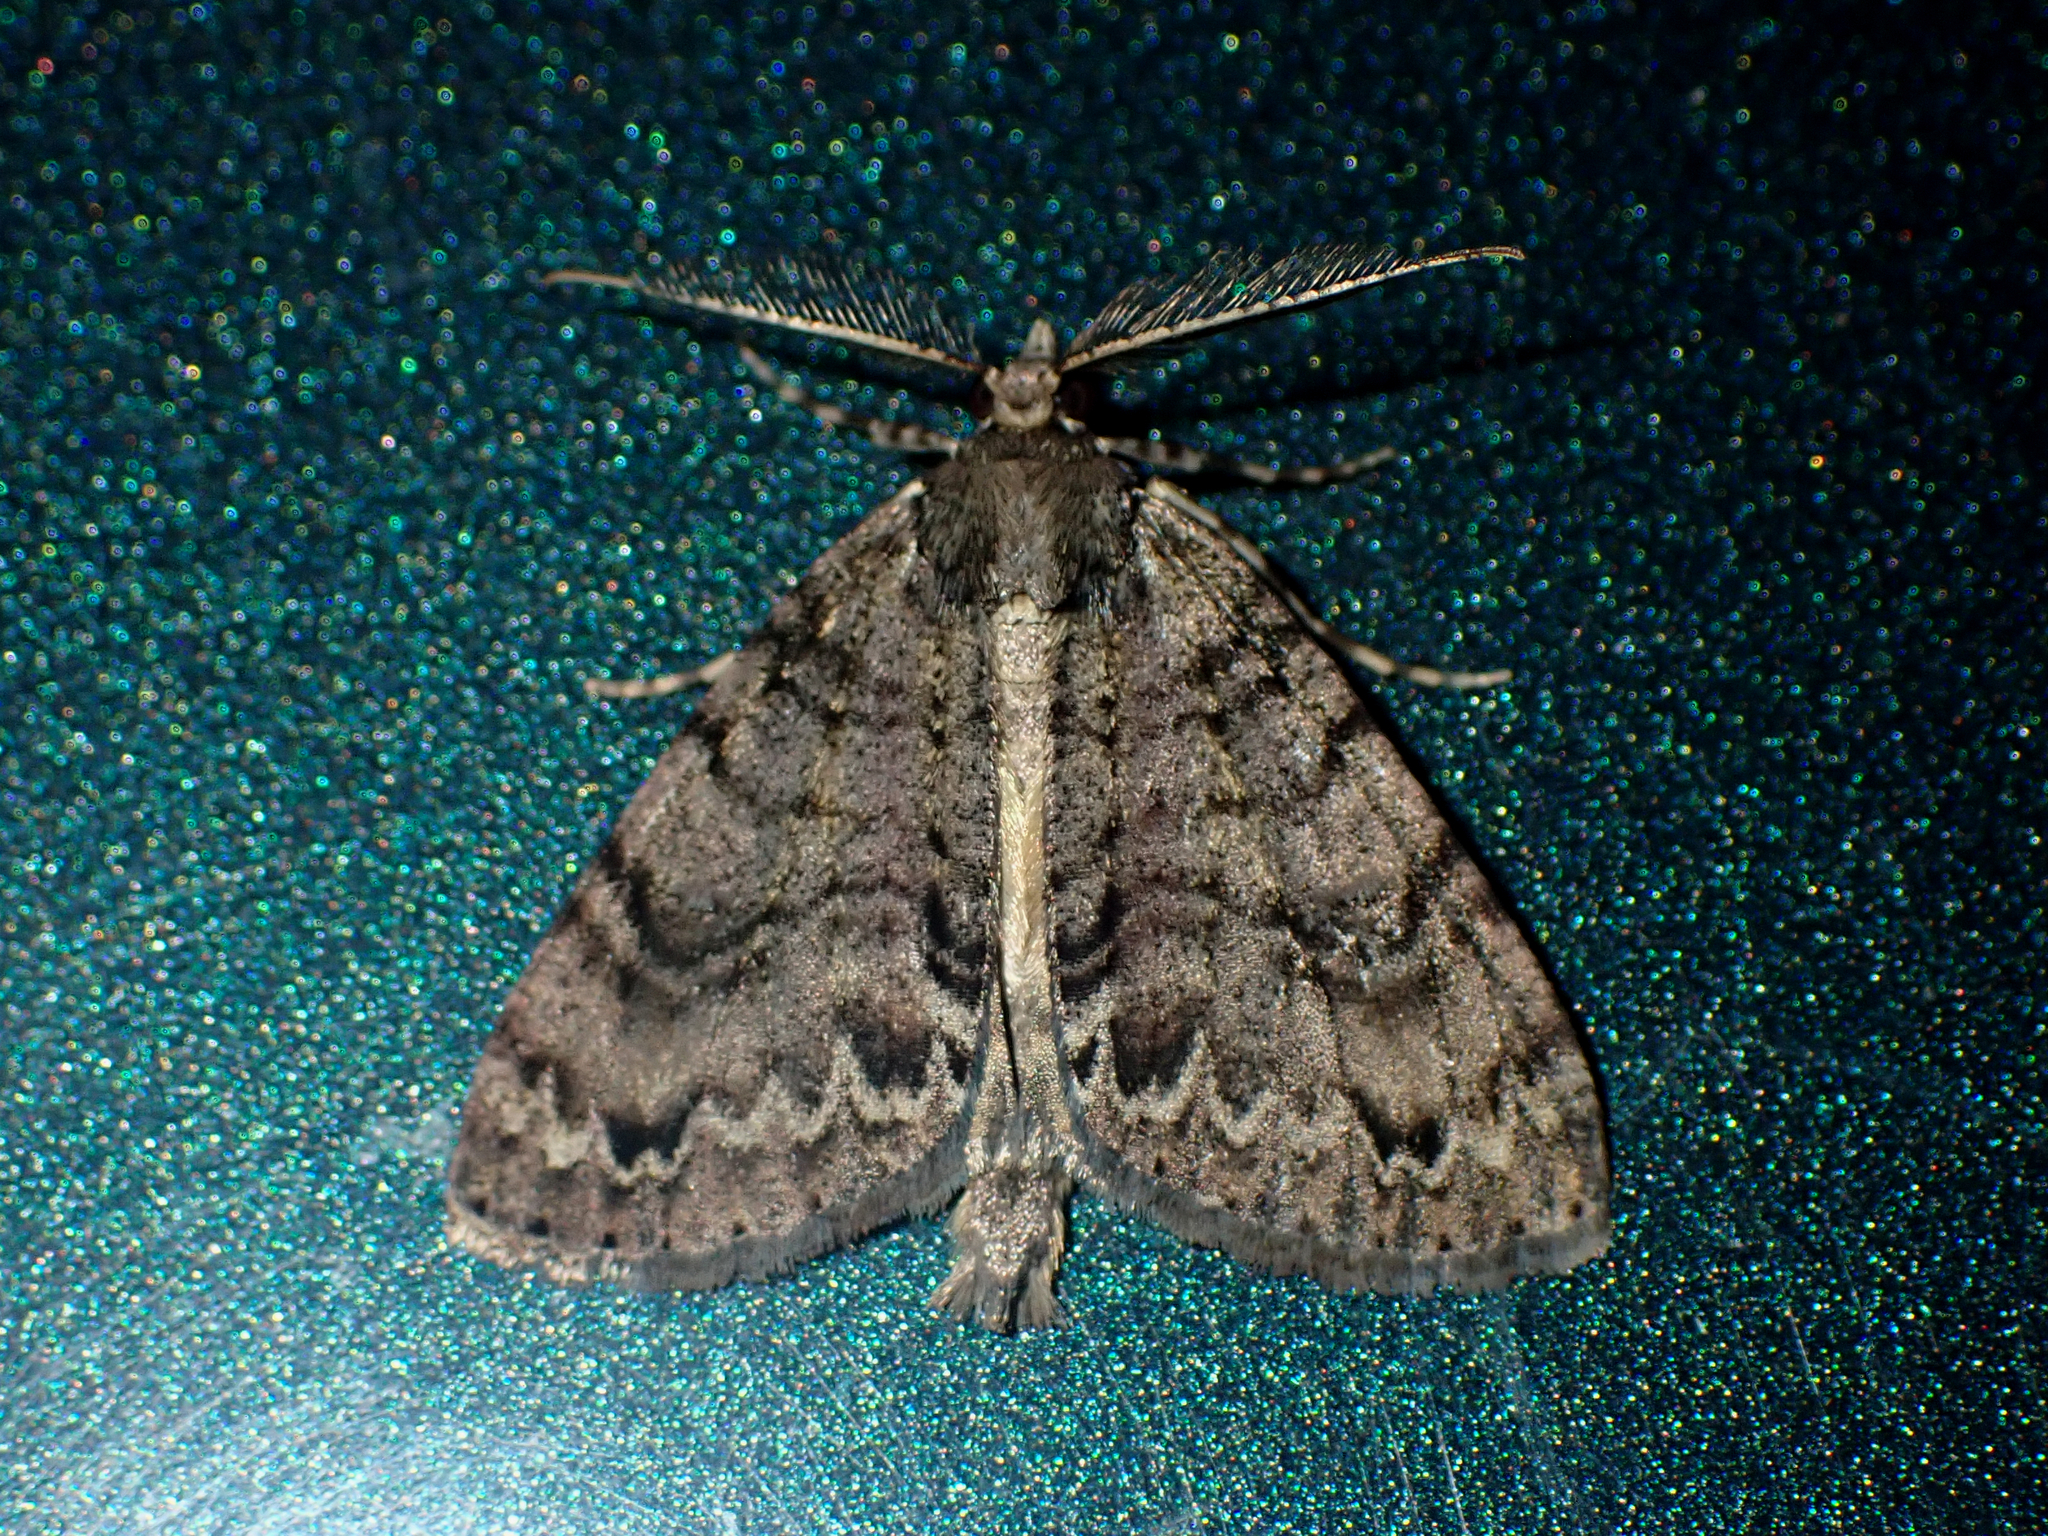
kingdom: Animalia
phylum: Arthropoda
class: Insecta
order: Lepidoptera
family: Geometridae
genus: Pseudocoremia
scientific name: Pseudocoremia suavis
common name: Common forest looper
